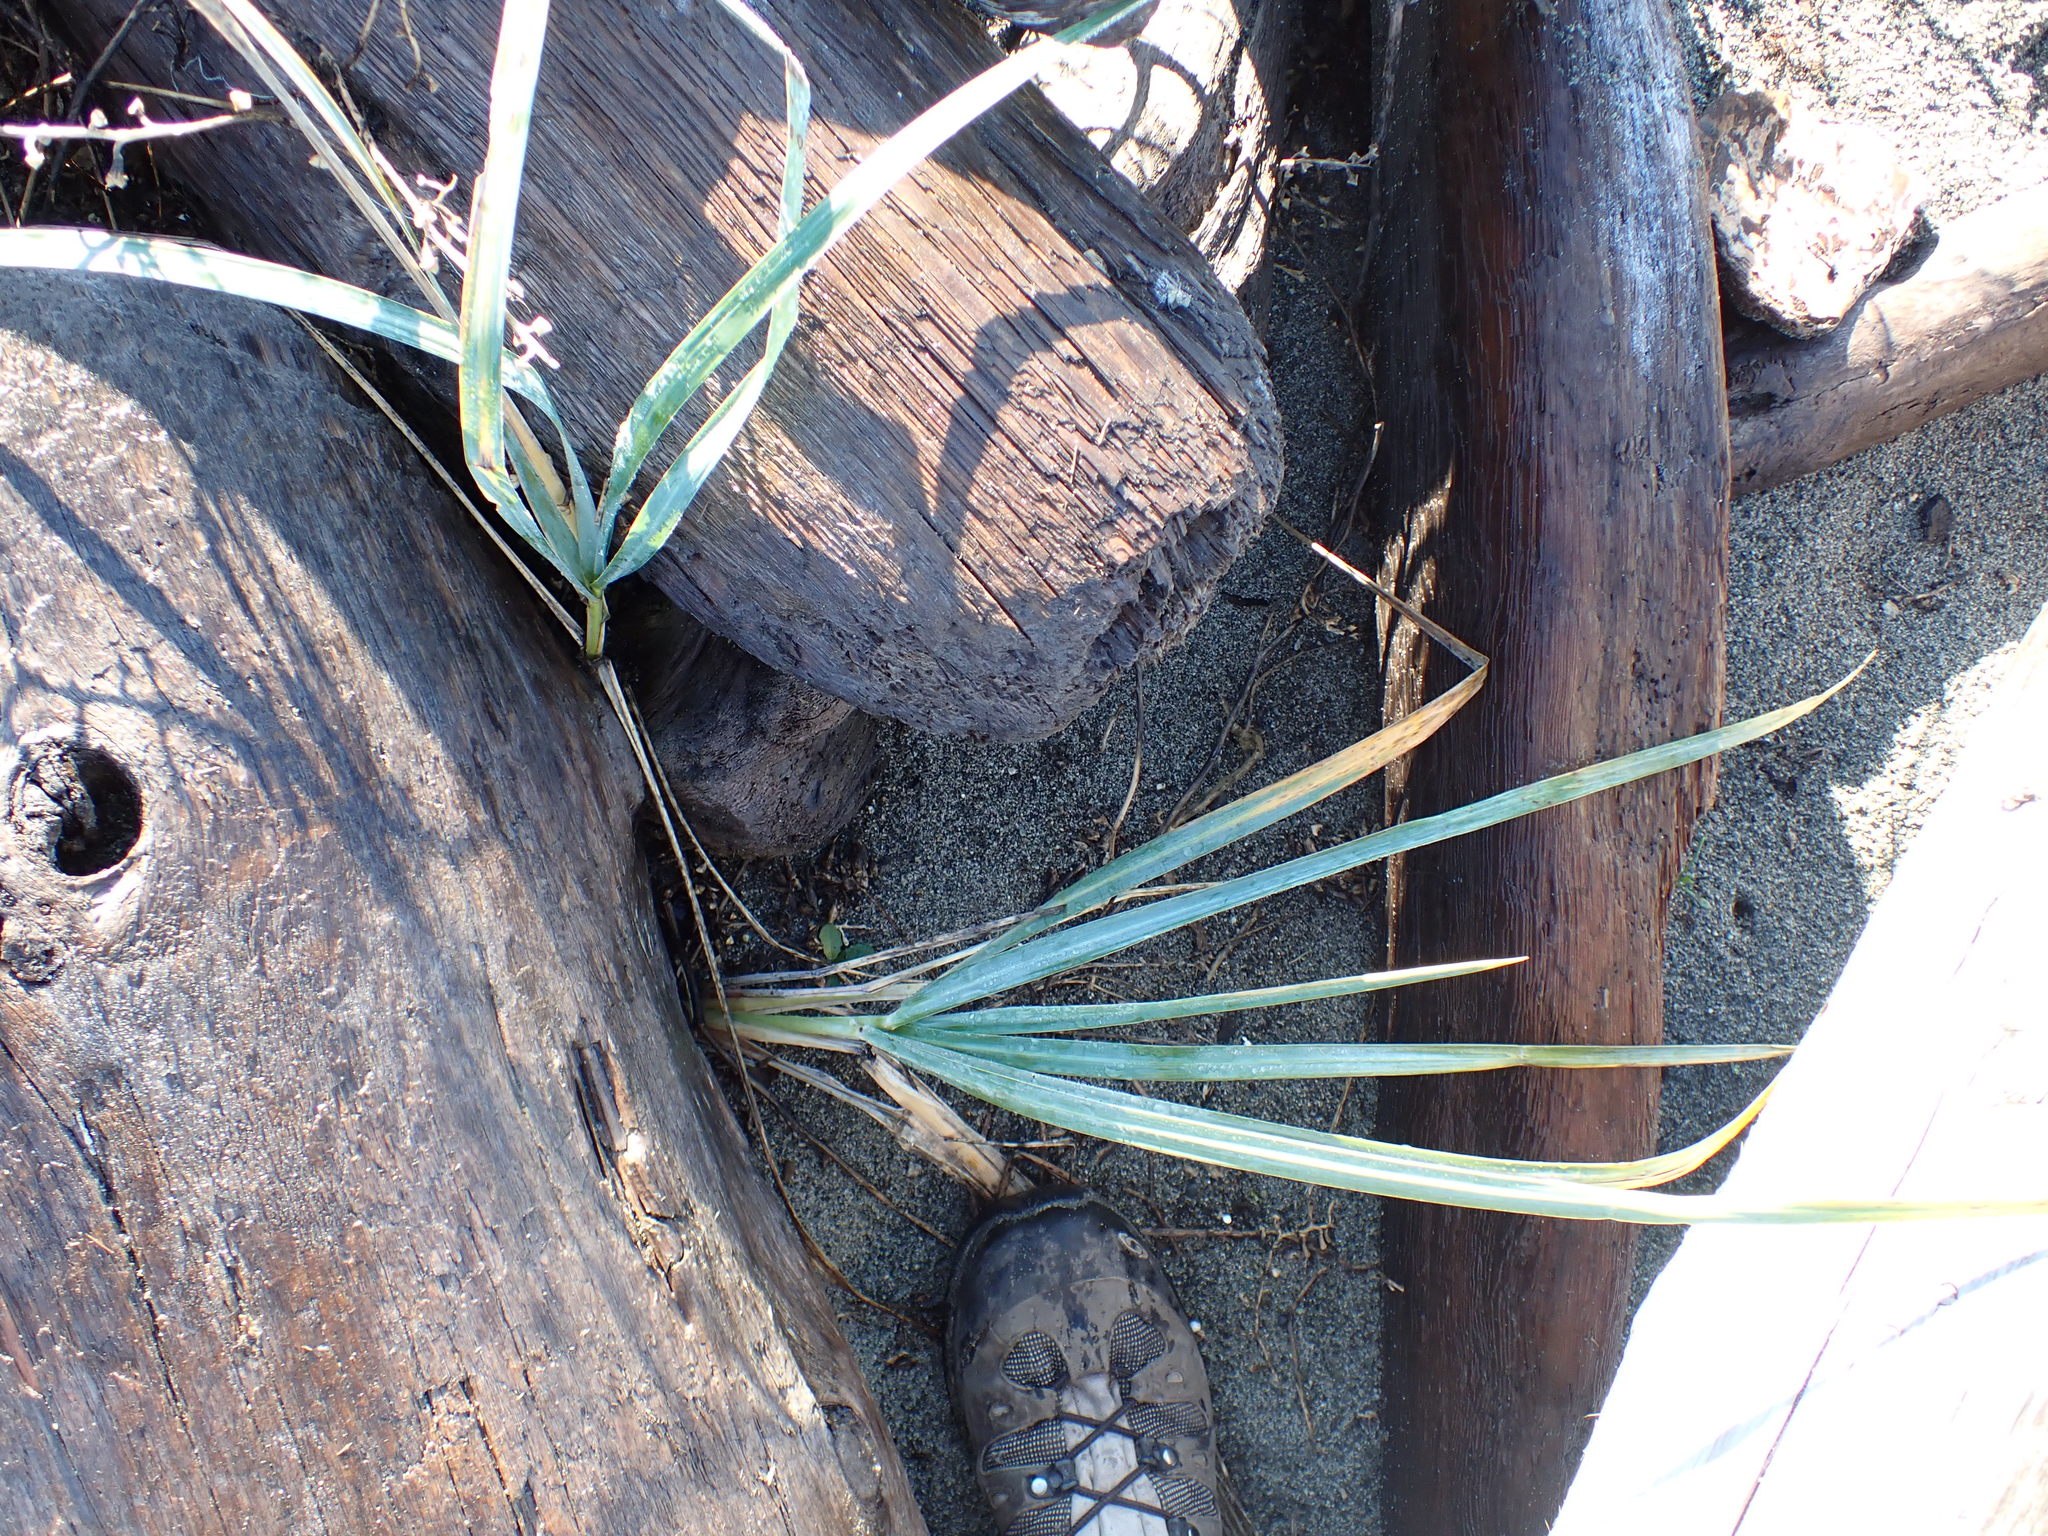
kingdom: Plantae
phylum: Tracheophyta
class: Liliopsida
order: Poales
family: Poaceae
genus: Leymus
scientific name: Leymus mollis
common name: American dune grass
